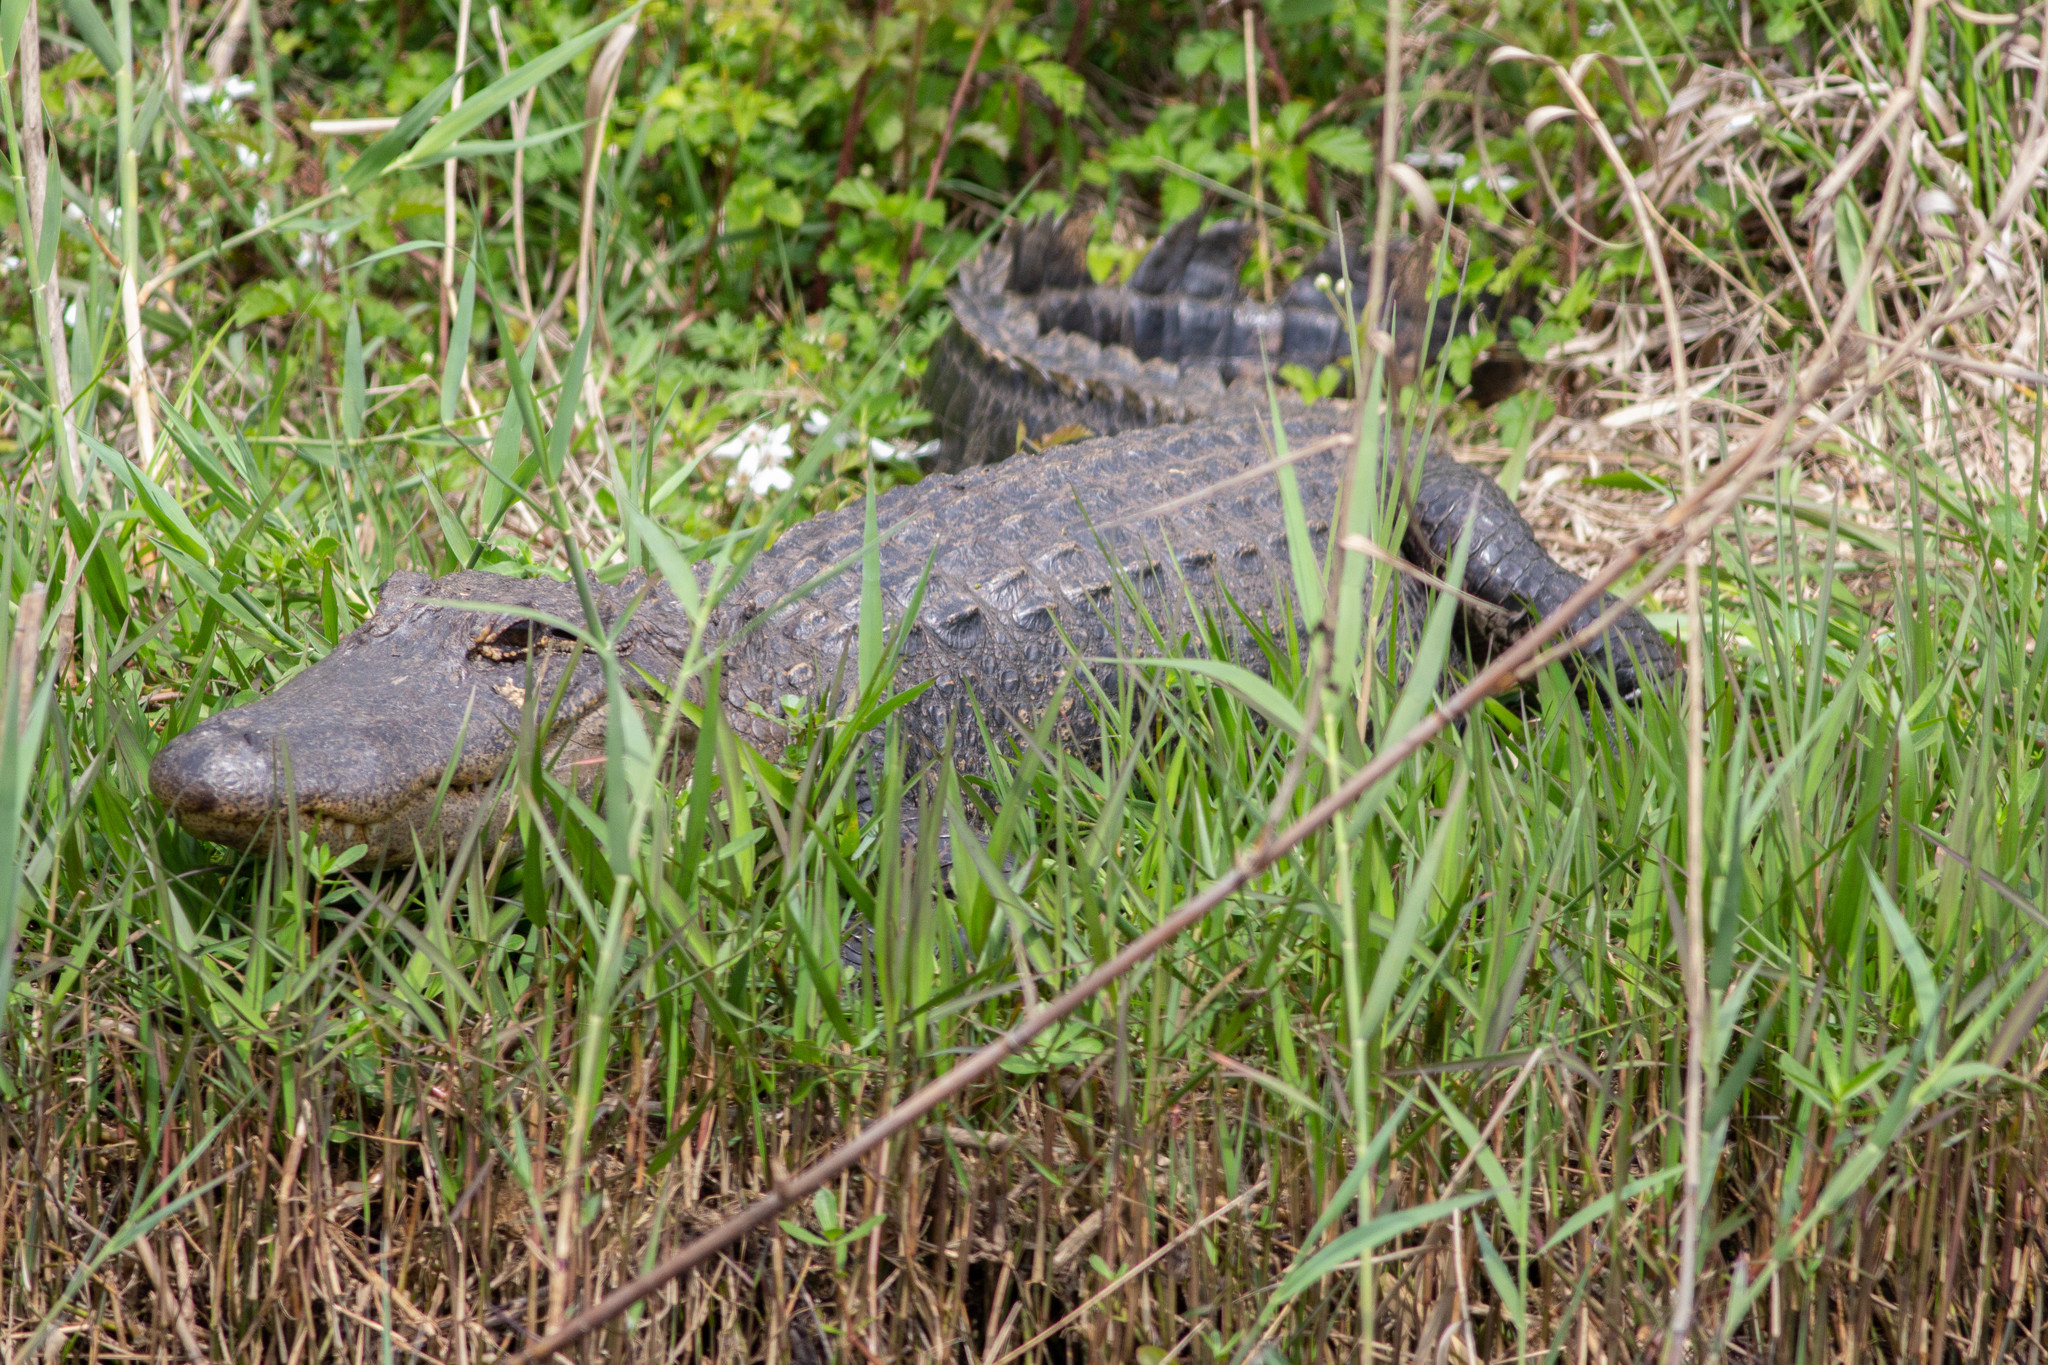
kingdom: Animalia
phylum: Chordata
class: Crocodylia
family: Alligatoridae
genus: Alligator
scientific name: Alligator mississippiensis
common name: American alligator
